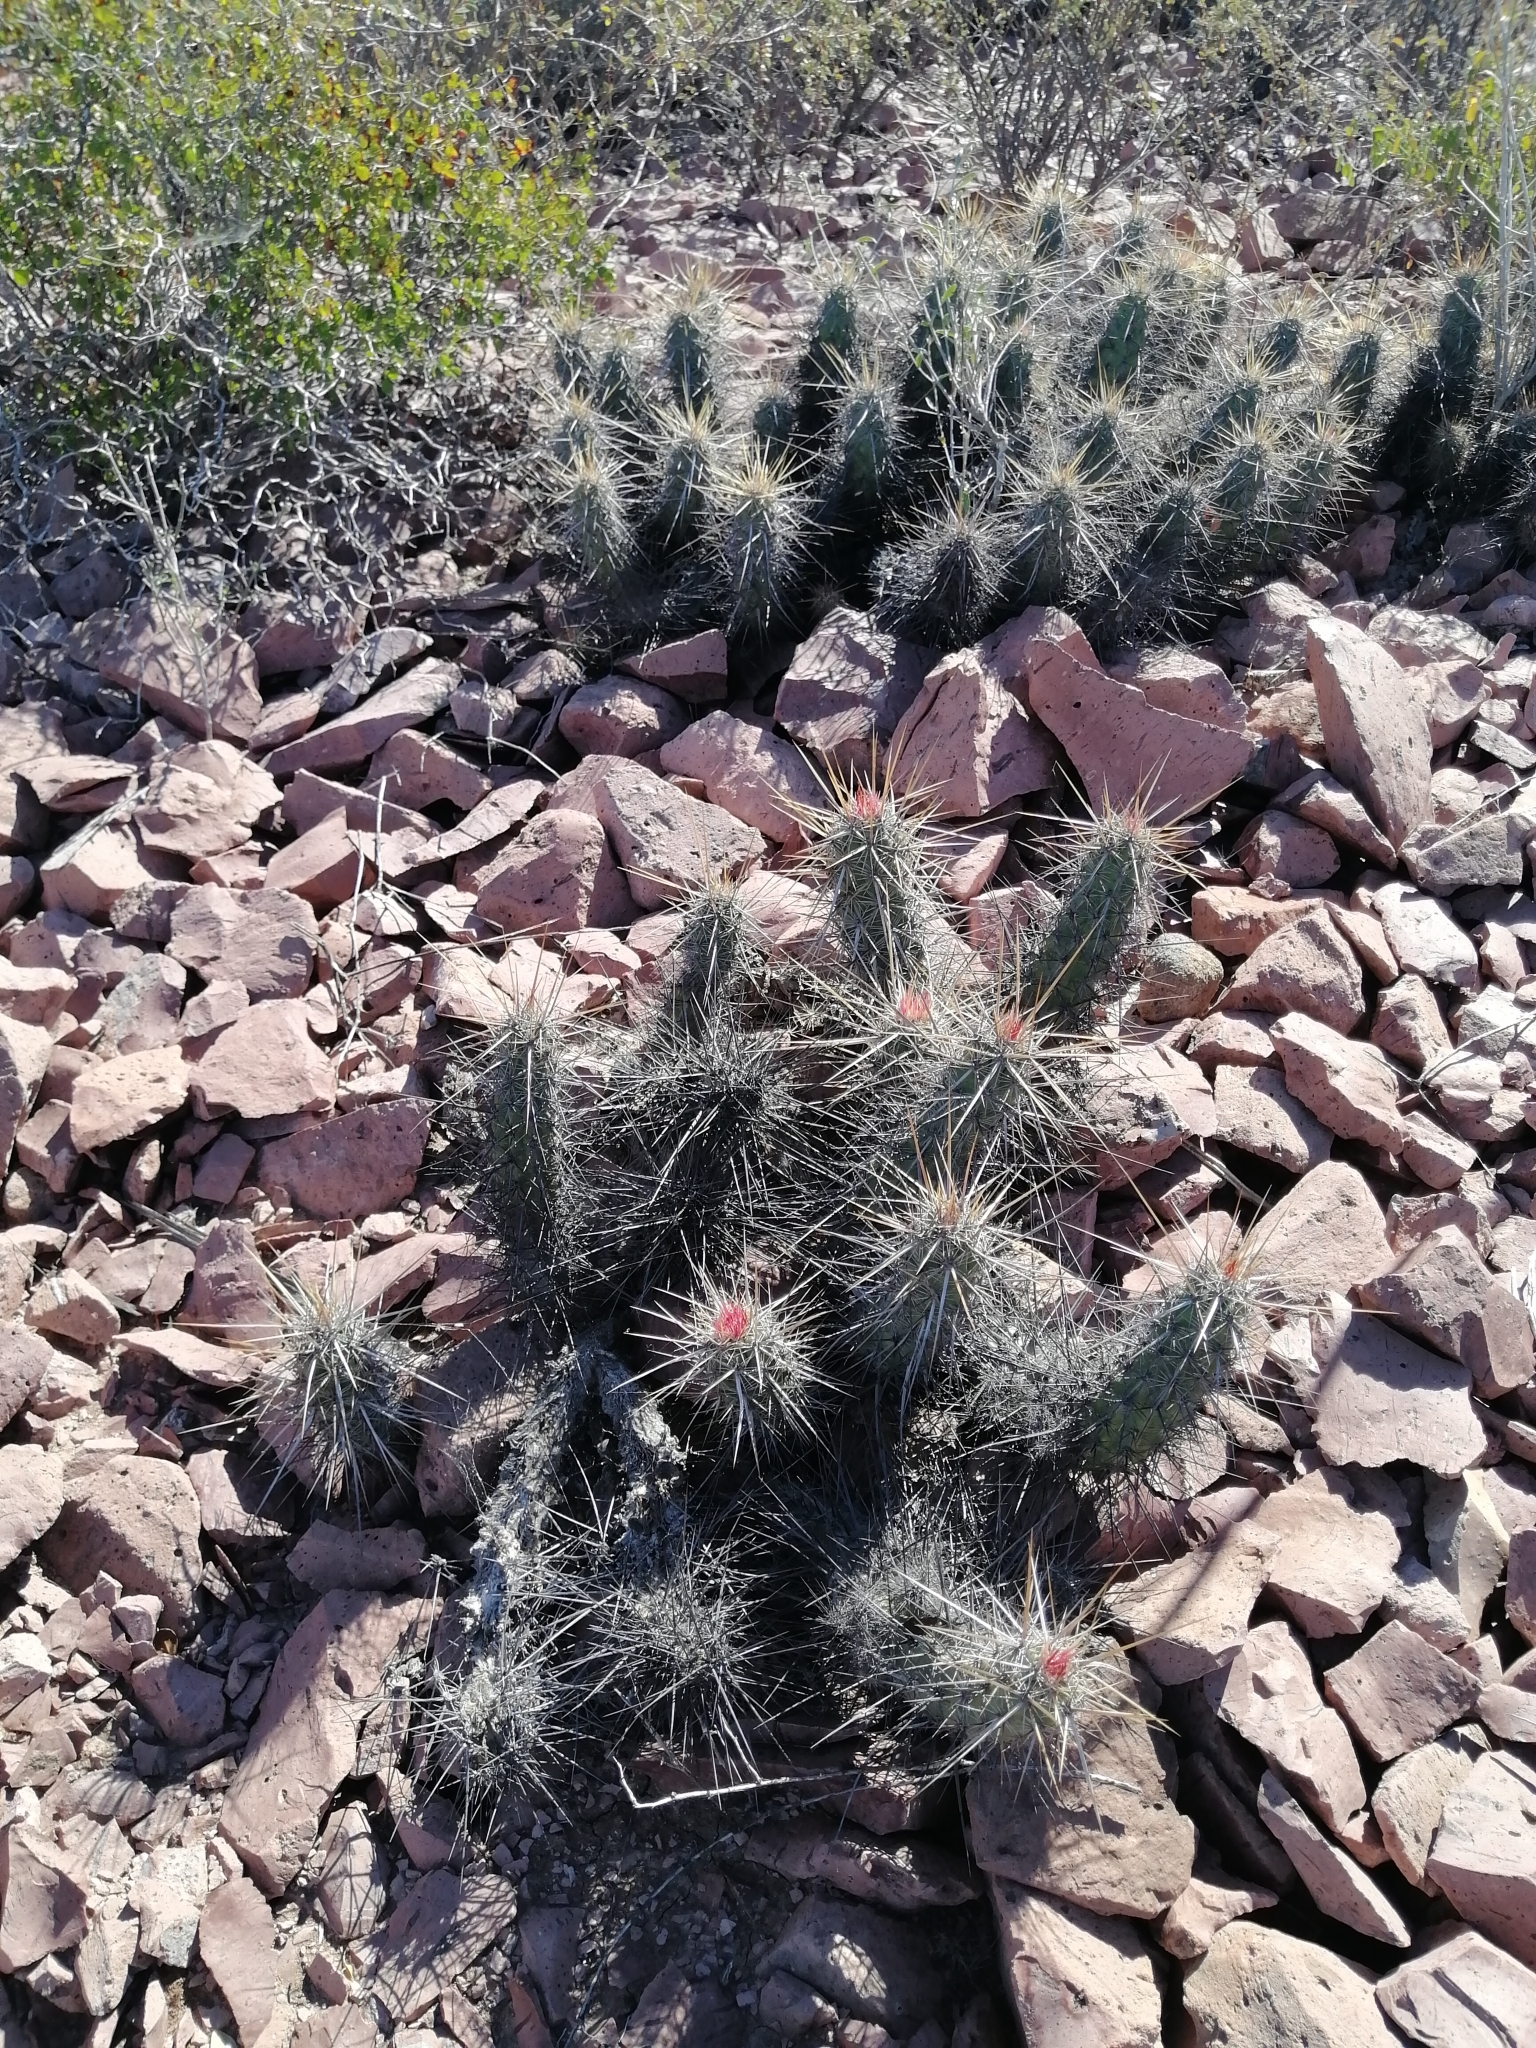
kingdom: Plantae
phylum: Tracheophyta
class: Magnoliopsida
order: Caryophyllales
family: Cactaceae
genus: Echinocereus
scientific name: Echinocereus brandegeei
